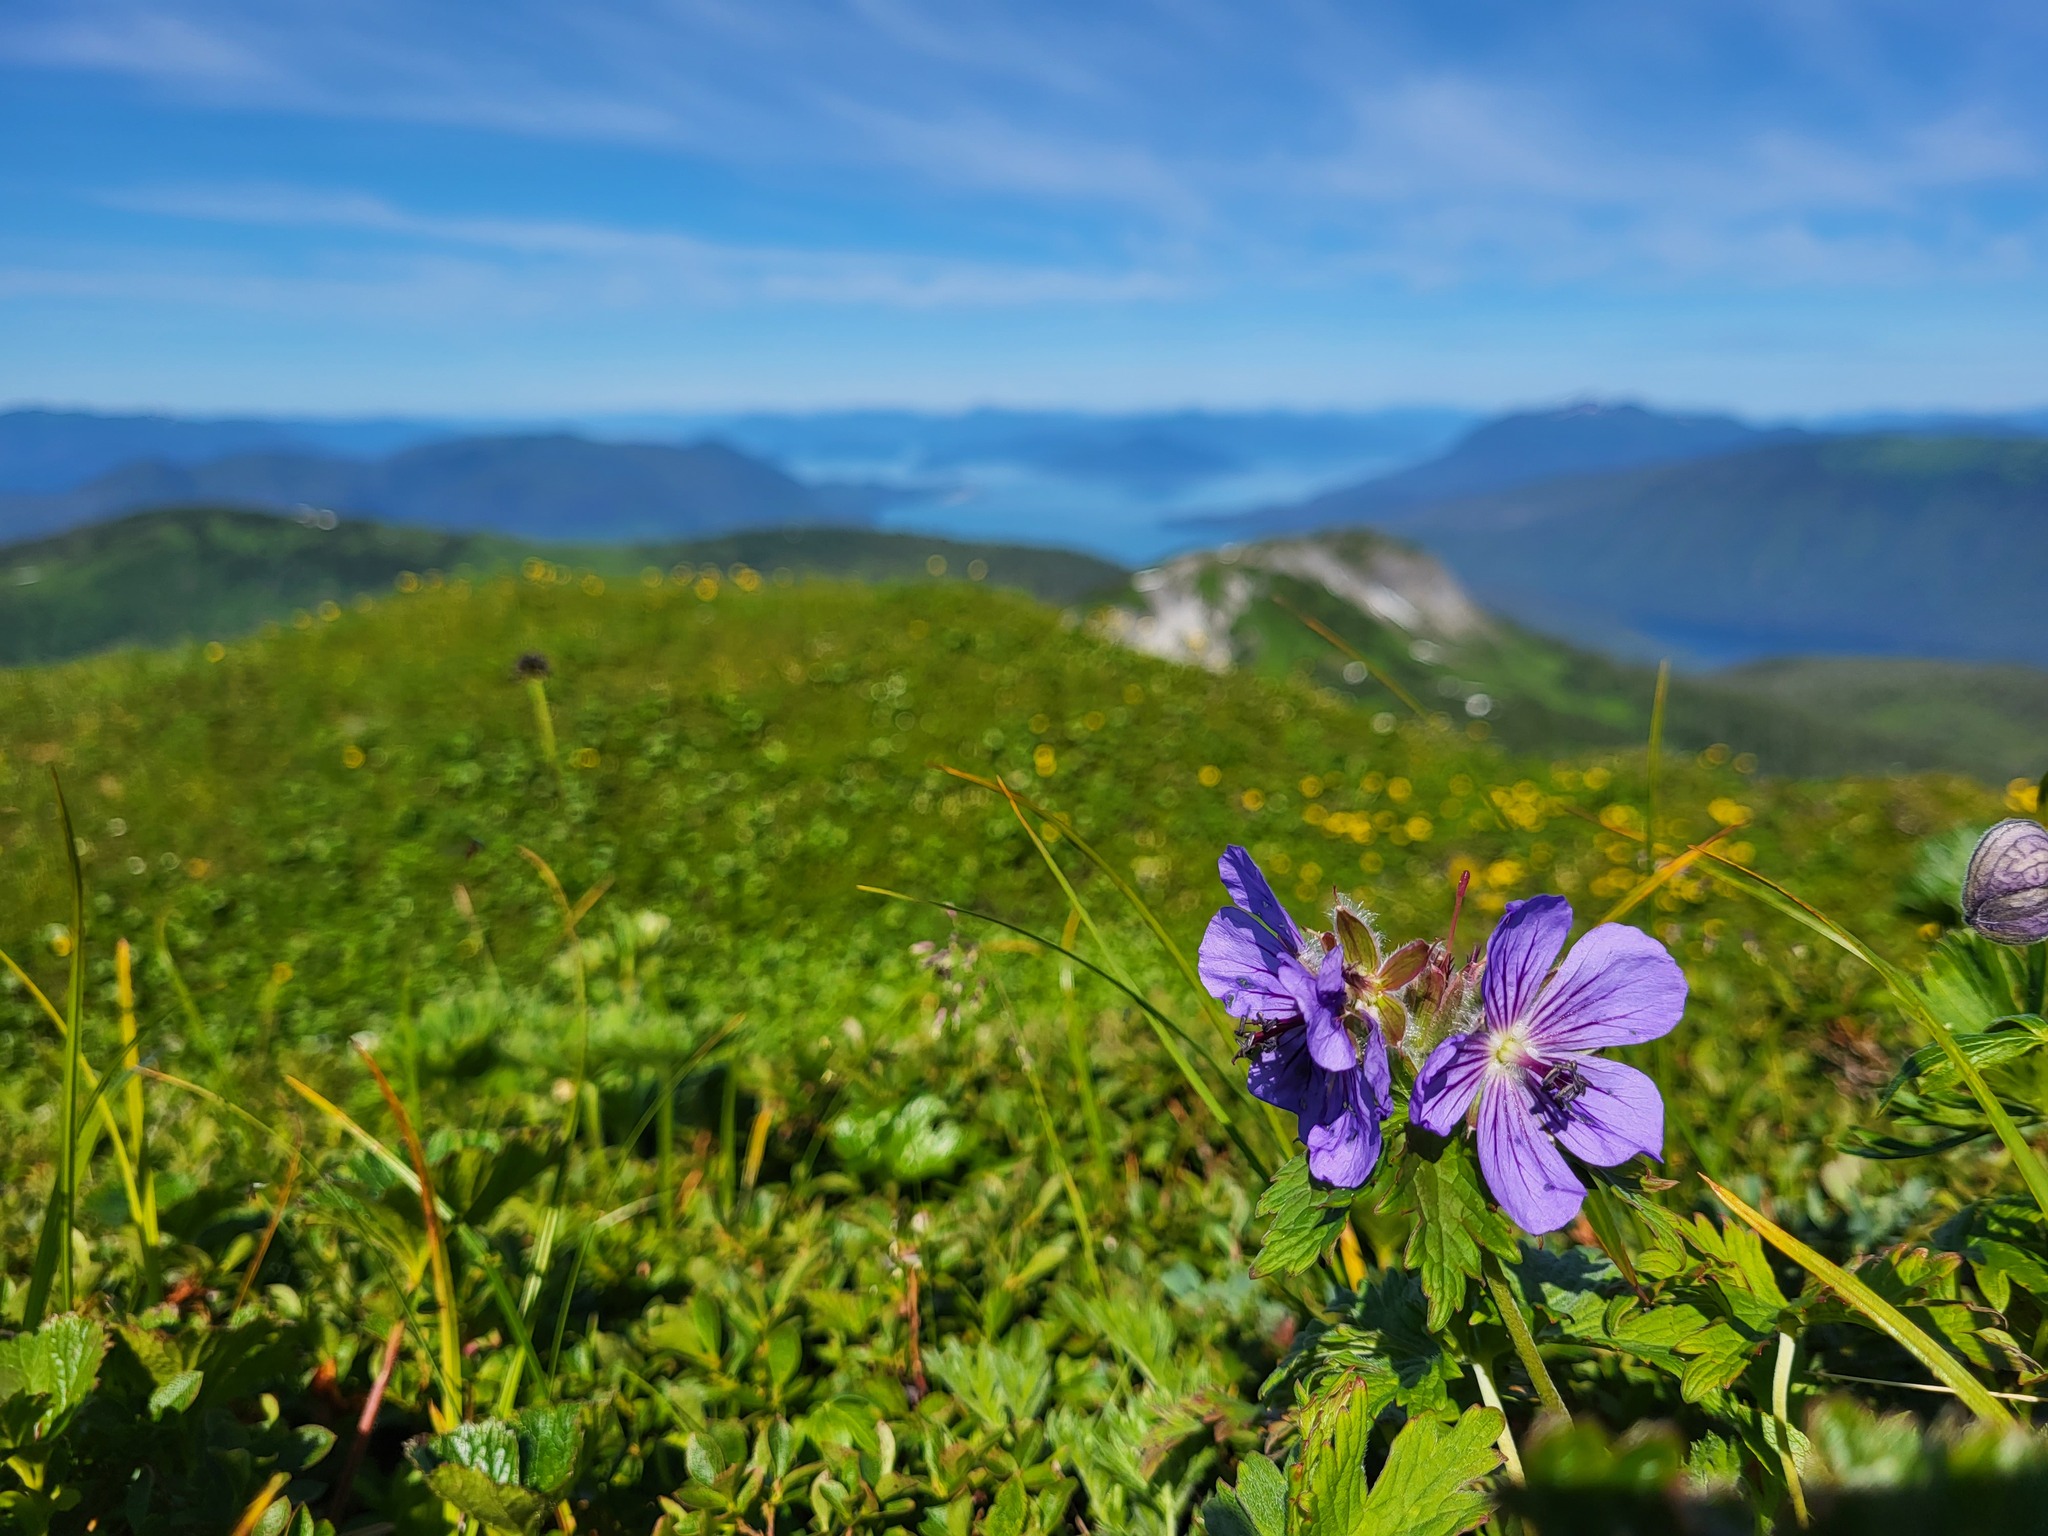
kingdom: Plantae
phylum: Tracheophyta
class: Magnoliopsida
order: Geraniales
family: Geraniaceae
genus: Geranium
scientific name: Geranium erianthum
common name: Northern crane's-bill
